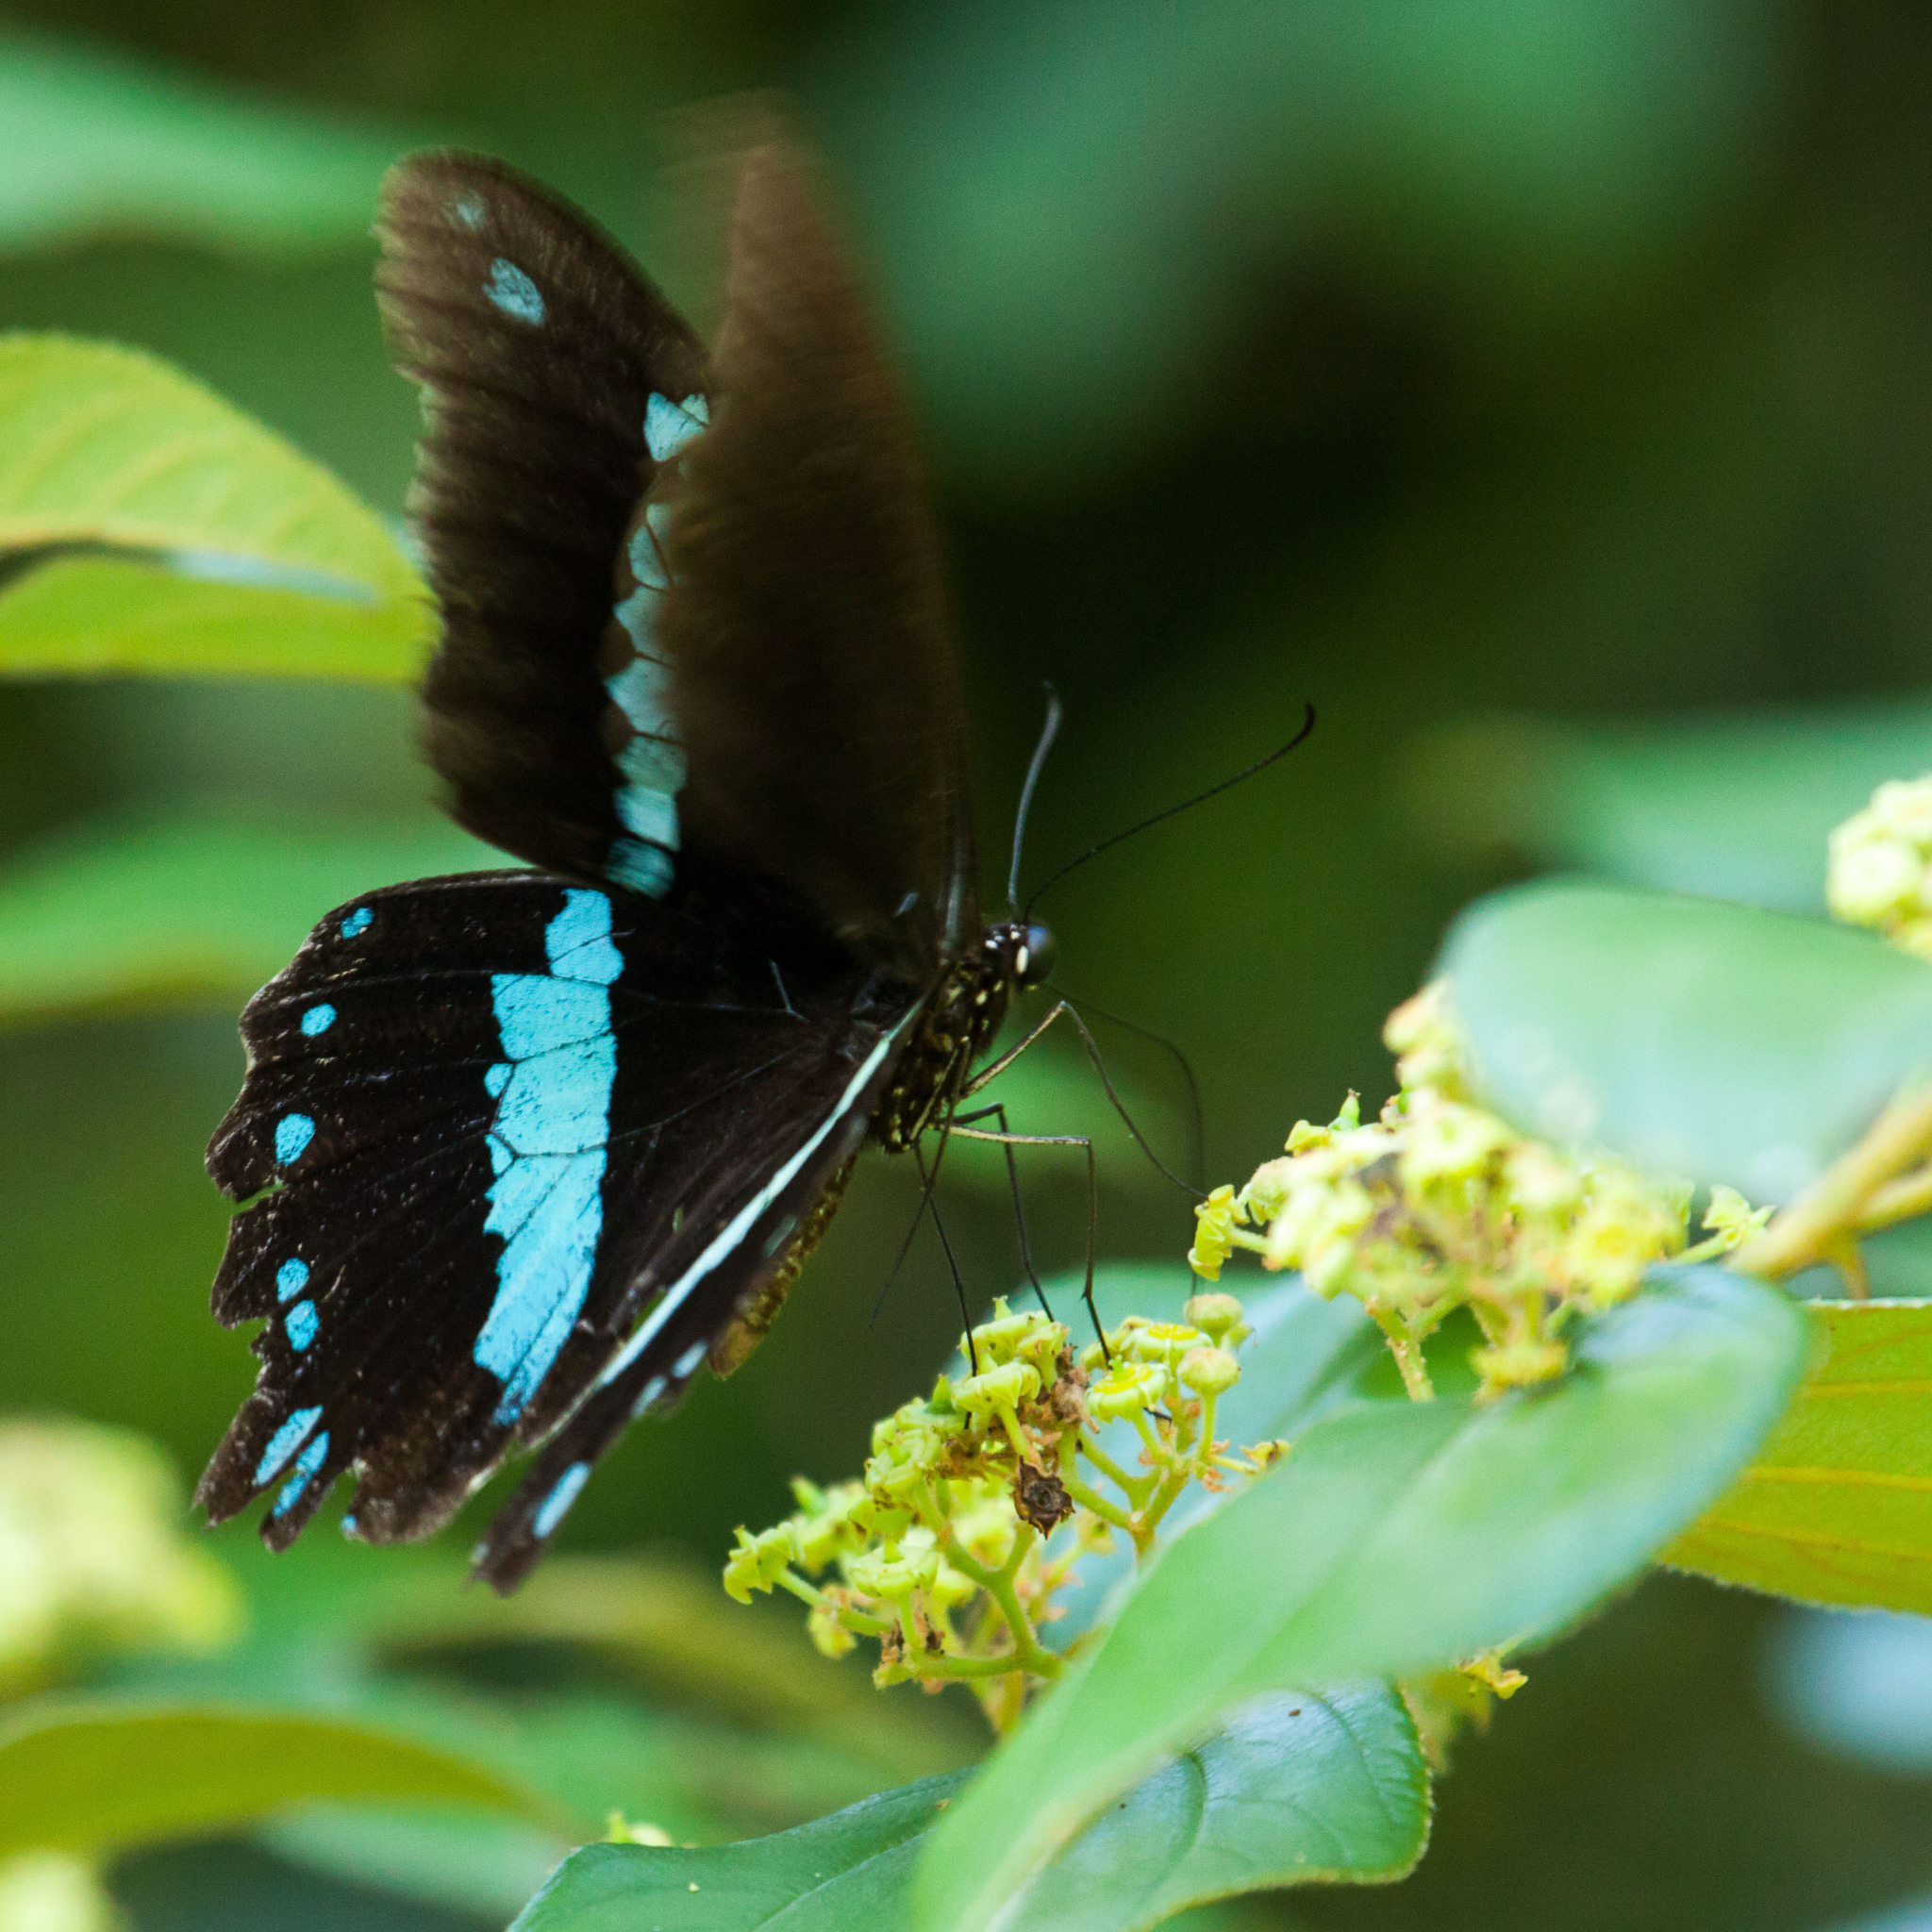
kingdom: Animalia
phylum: Arthropoda
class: Insecta
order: Lepidoptera
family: Papilionidae
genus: Papilio
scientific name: Papilio nireus
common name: Greenbanded swallowtail
